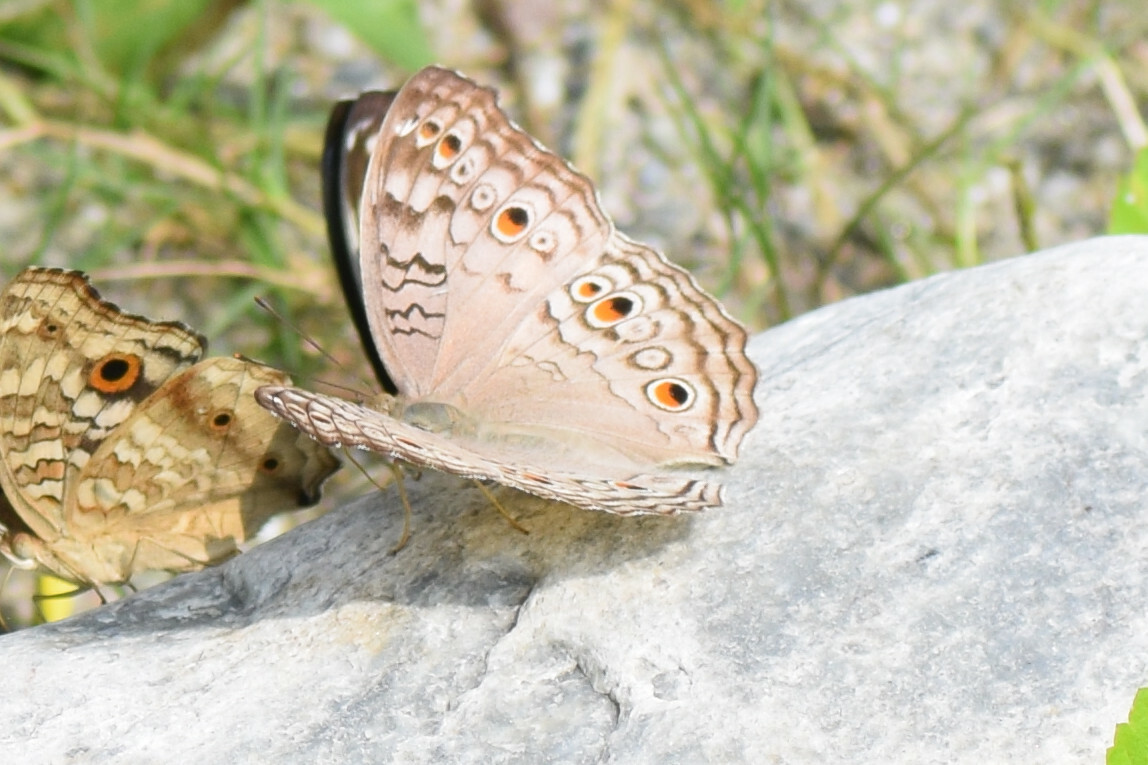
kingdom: Animalia
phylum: Arthropoda
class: Insecta
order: Lepidoptera
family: Nymphalidae
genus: Junonia
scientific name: Junonia atlites
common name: Grey pansy
